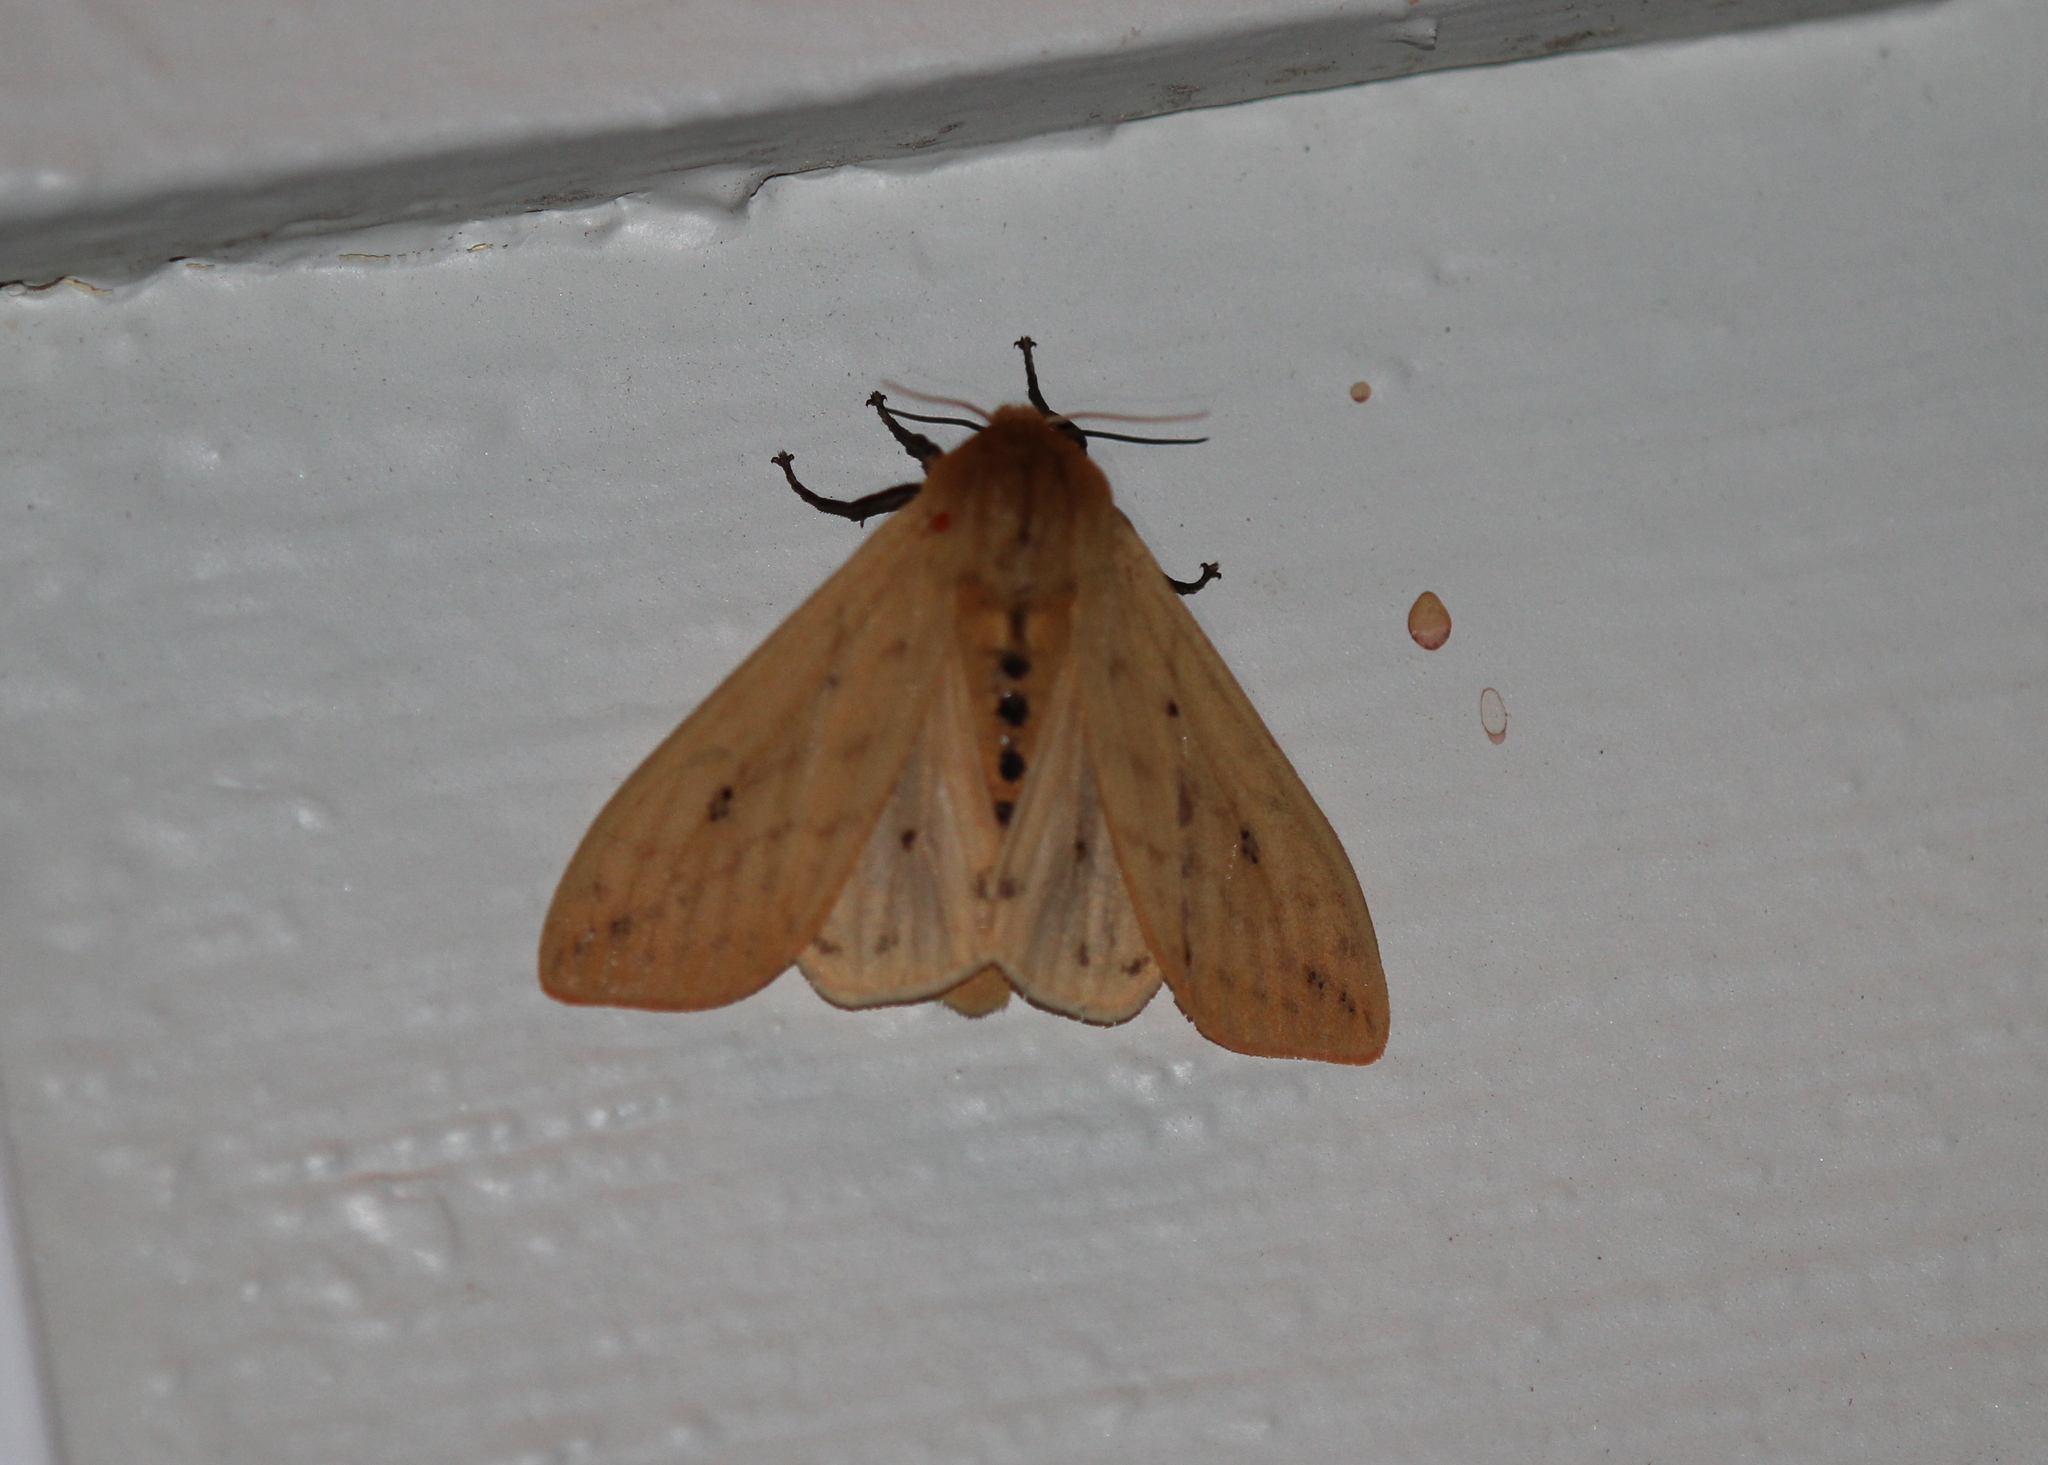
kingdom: Animalia
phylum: Arthropoda
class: Insecta
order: Lepidoptera
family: Erebidae
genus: Pyrrharctia
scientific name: Pyrrharctia isabella
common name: Isabella tiger moth
